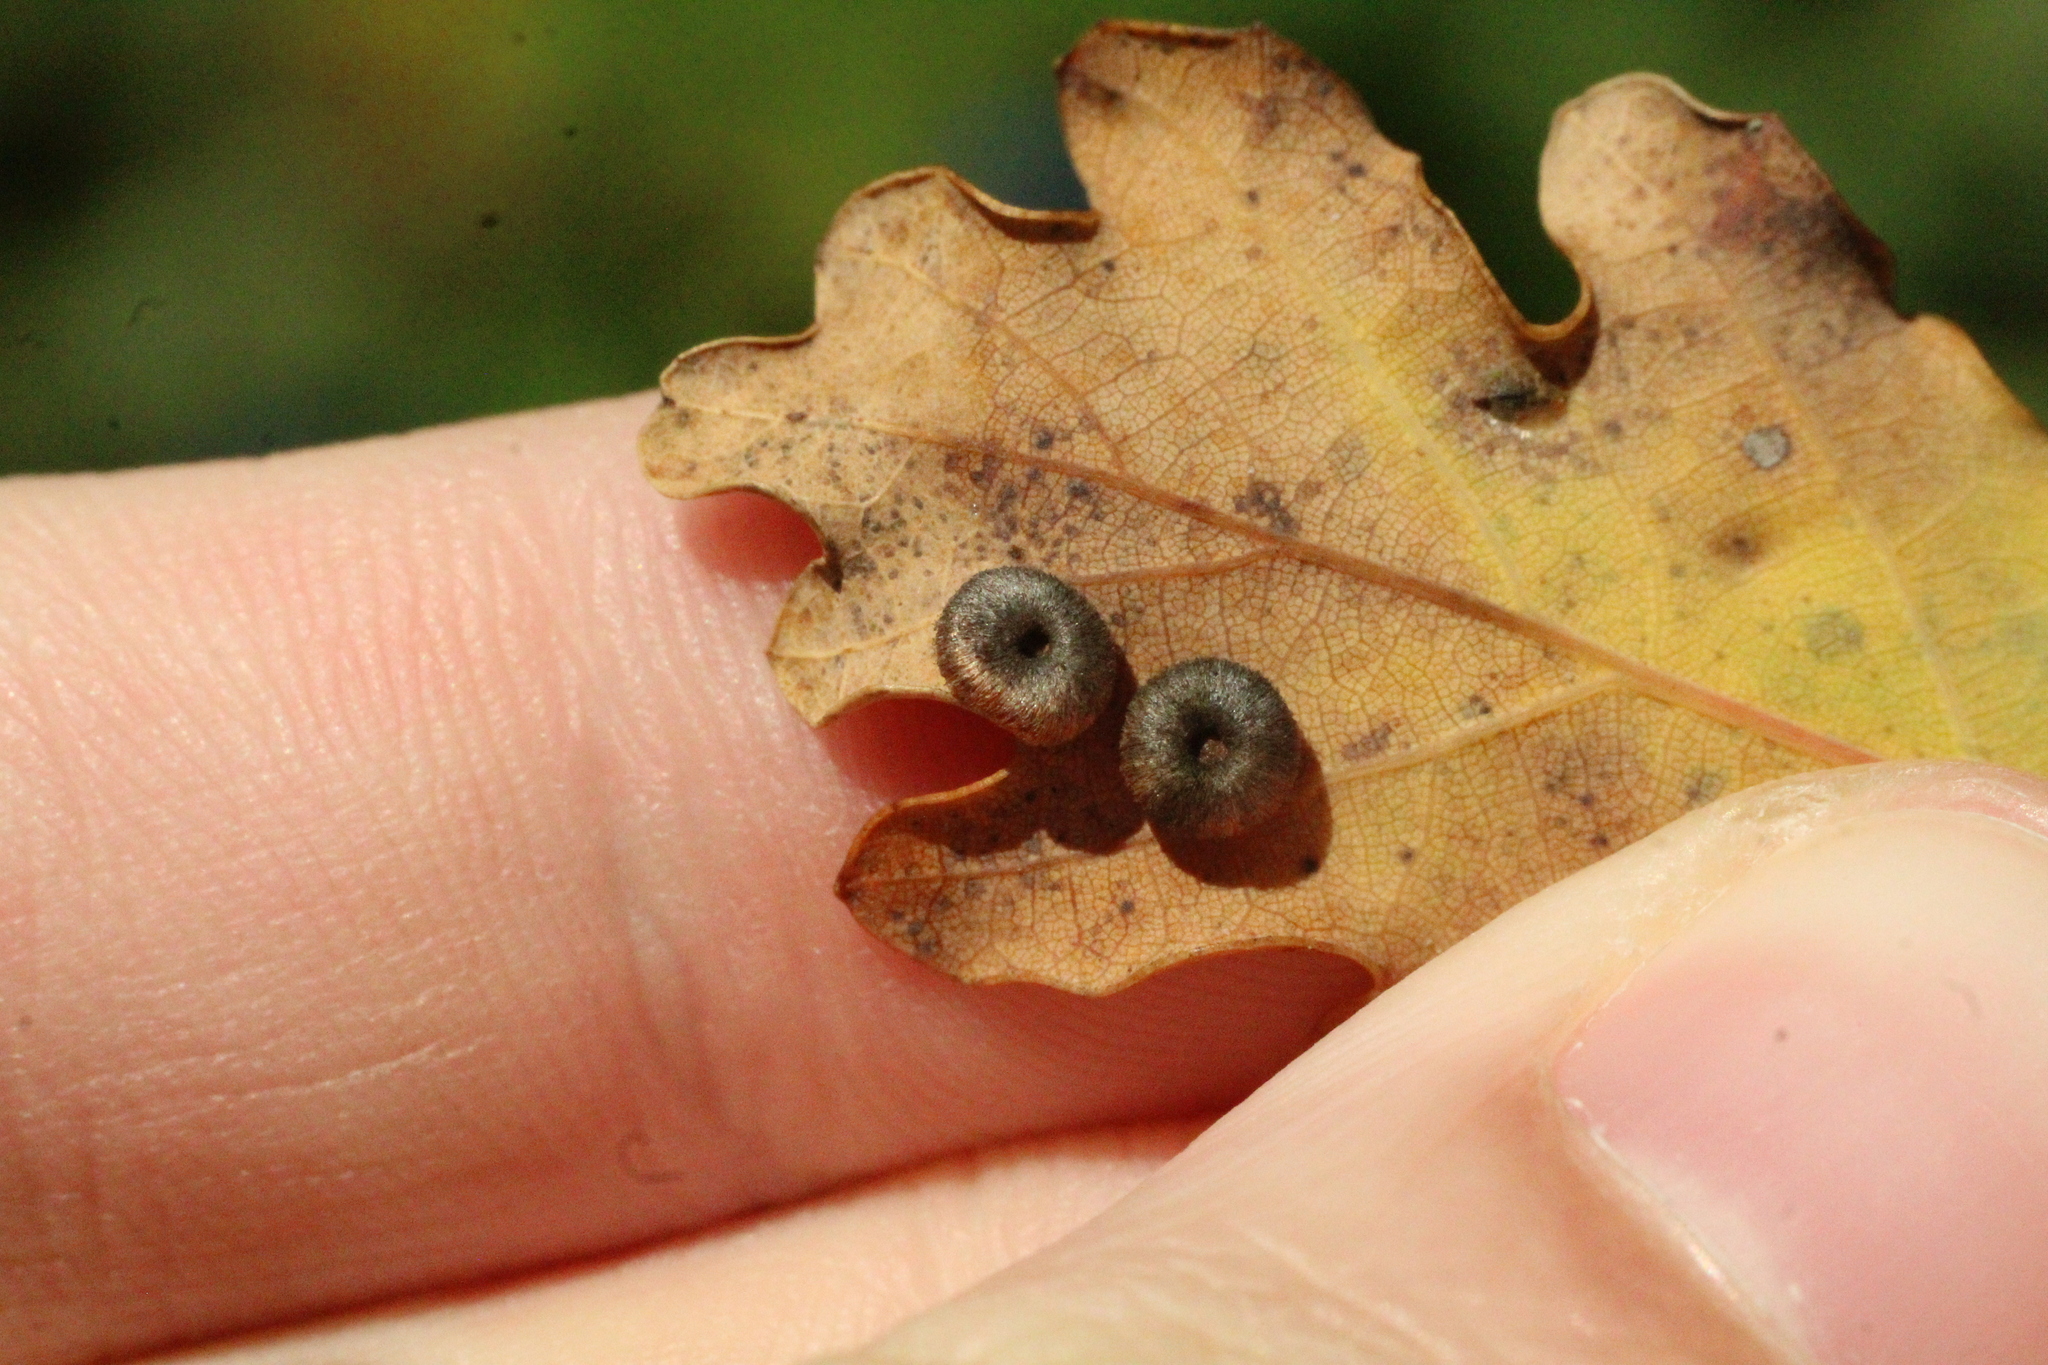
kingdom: Animalia
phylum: Arthropoda
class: Insecta
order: Hymenoptera
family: Cynipidae
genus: Neuroterus
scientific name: Neuroterus numismalis
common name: Silk-button spangle gall
